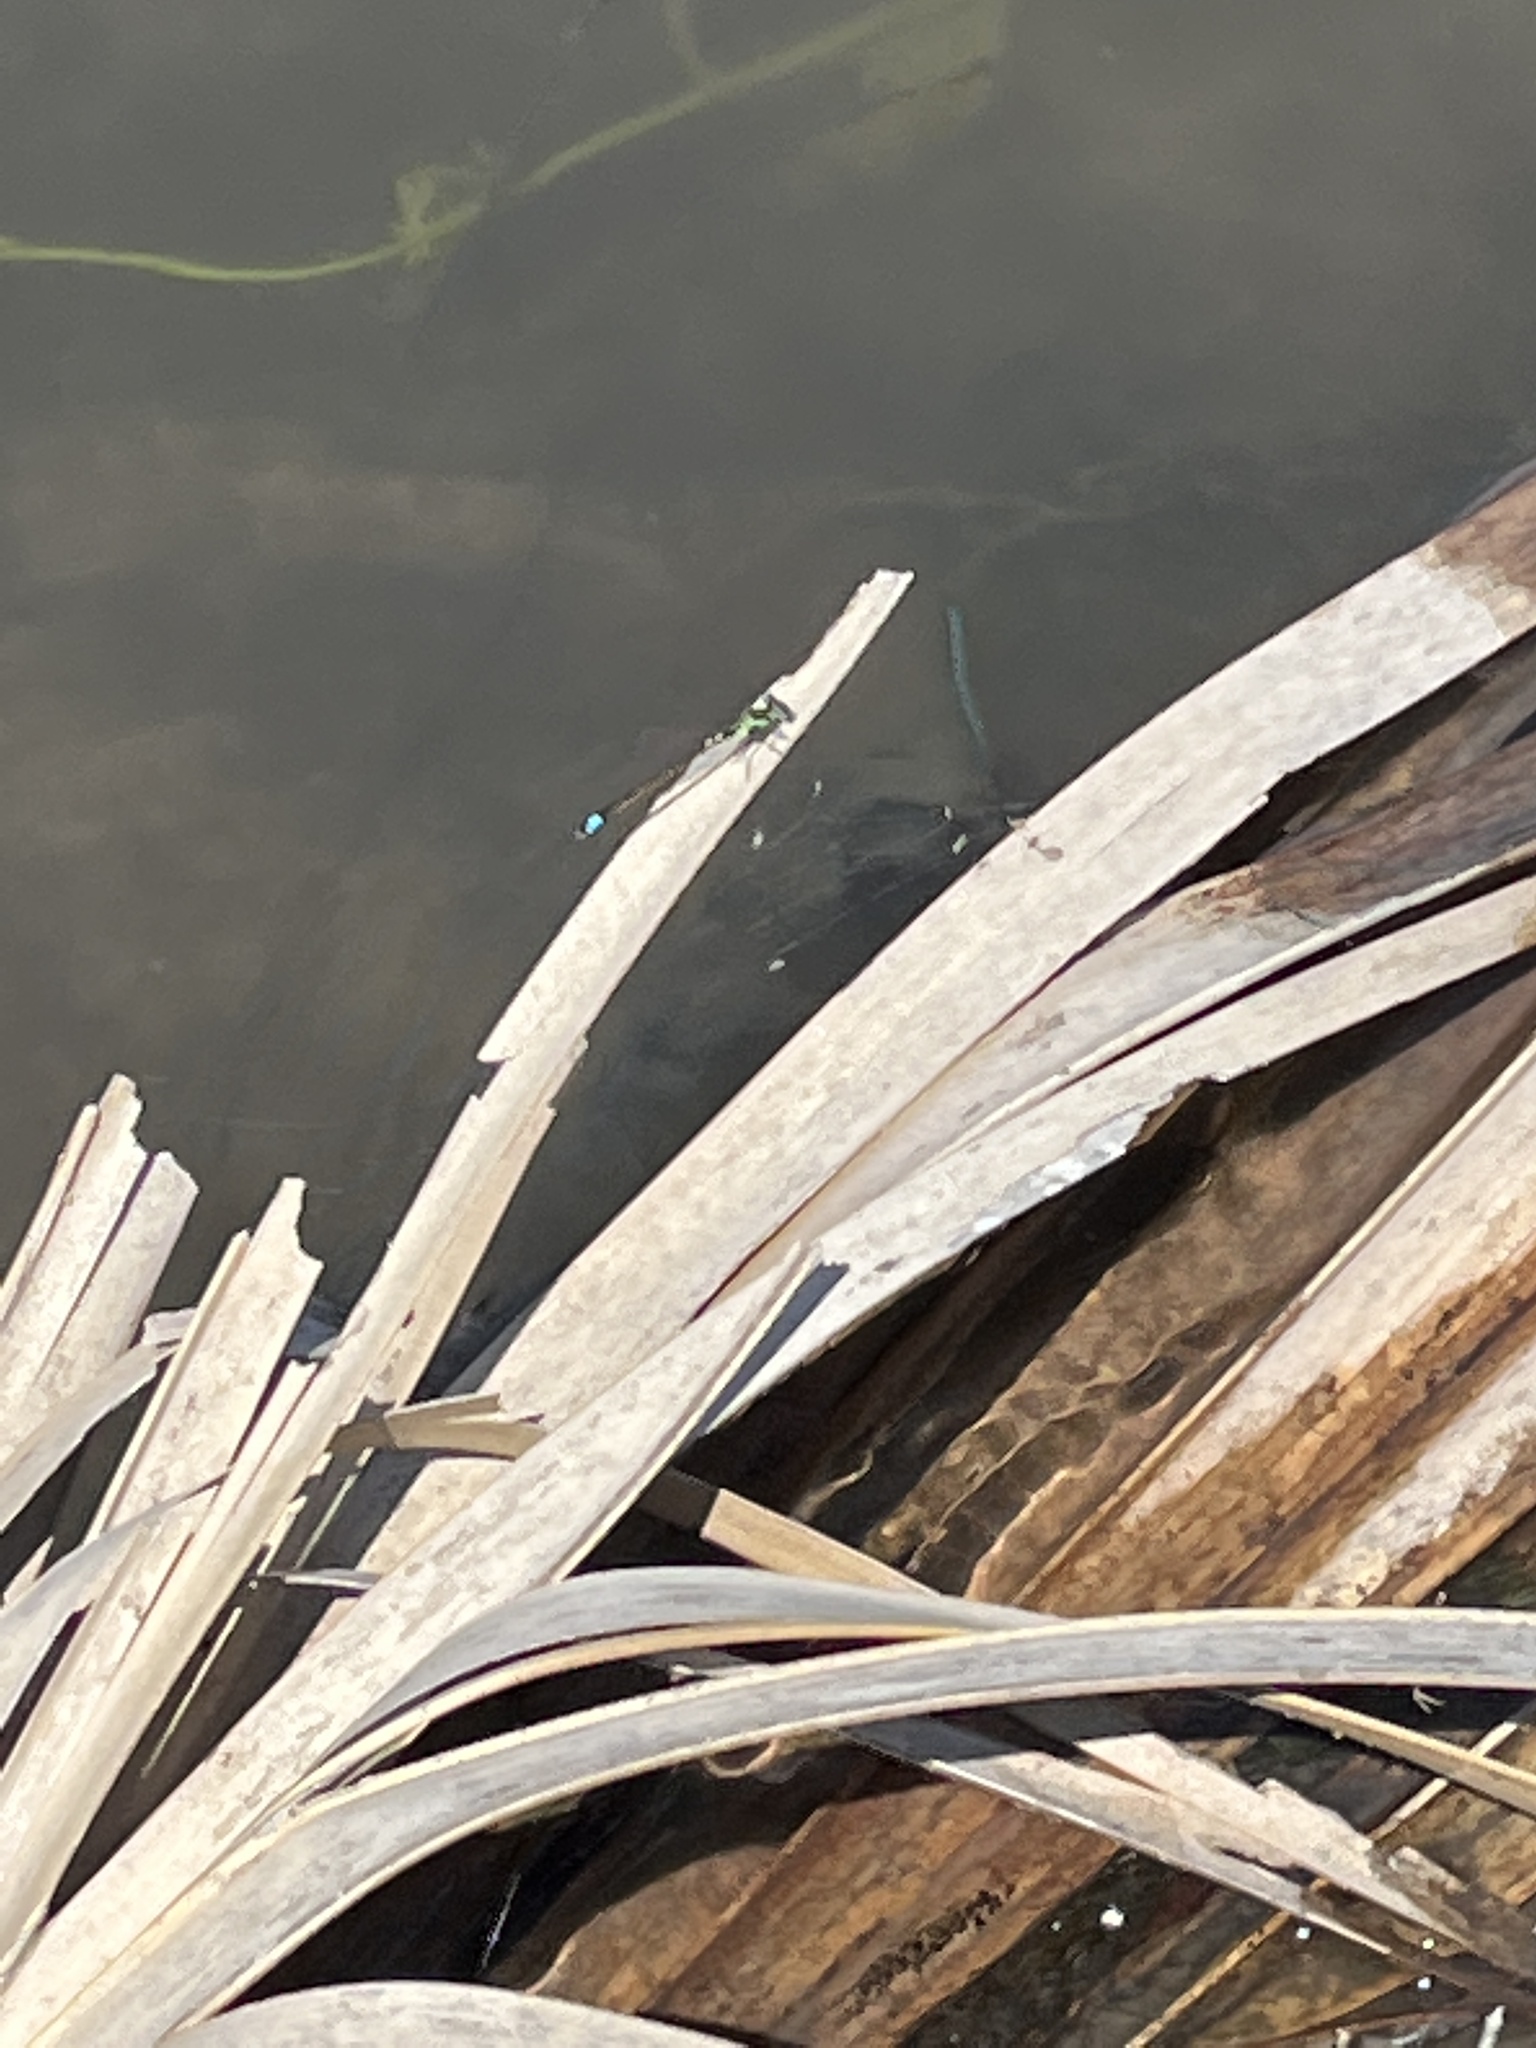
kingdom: Animalia
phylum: Arthropoda
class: Insecta
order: Odonata
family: Coenagrionidae
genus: Ischnura
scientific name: Ischnura ramburii
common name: Rambur's forktail
